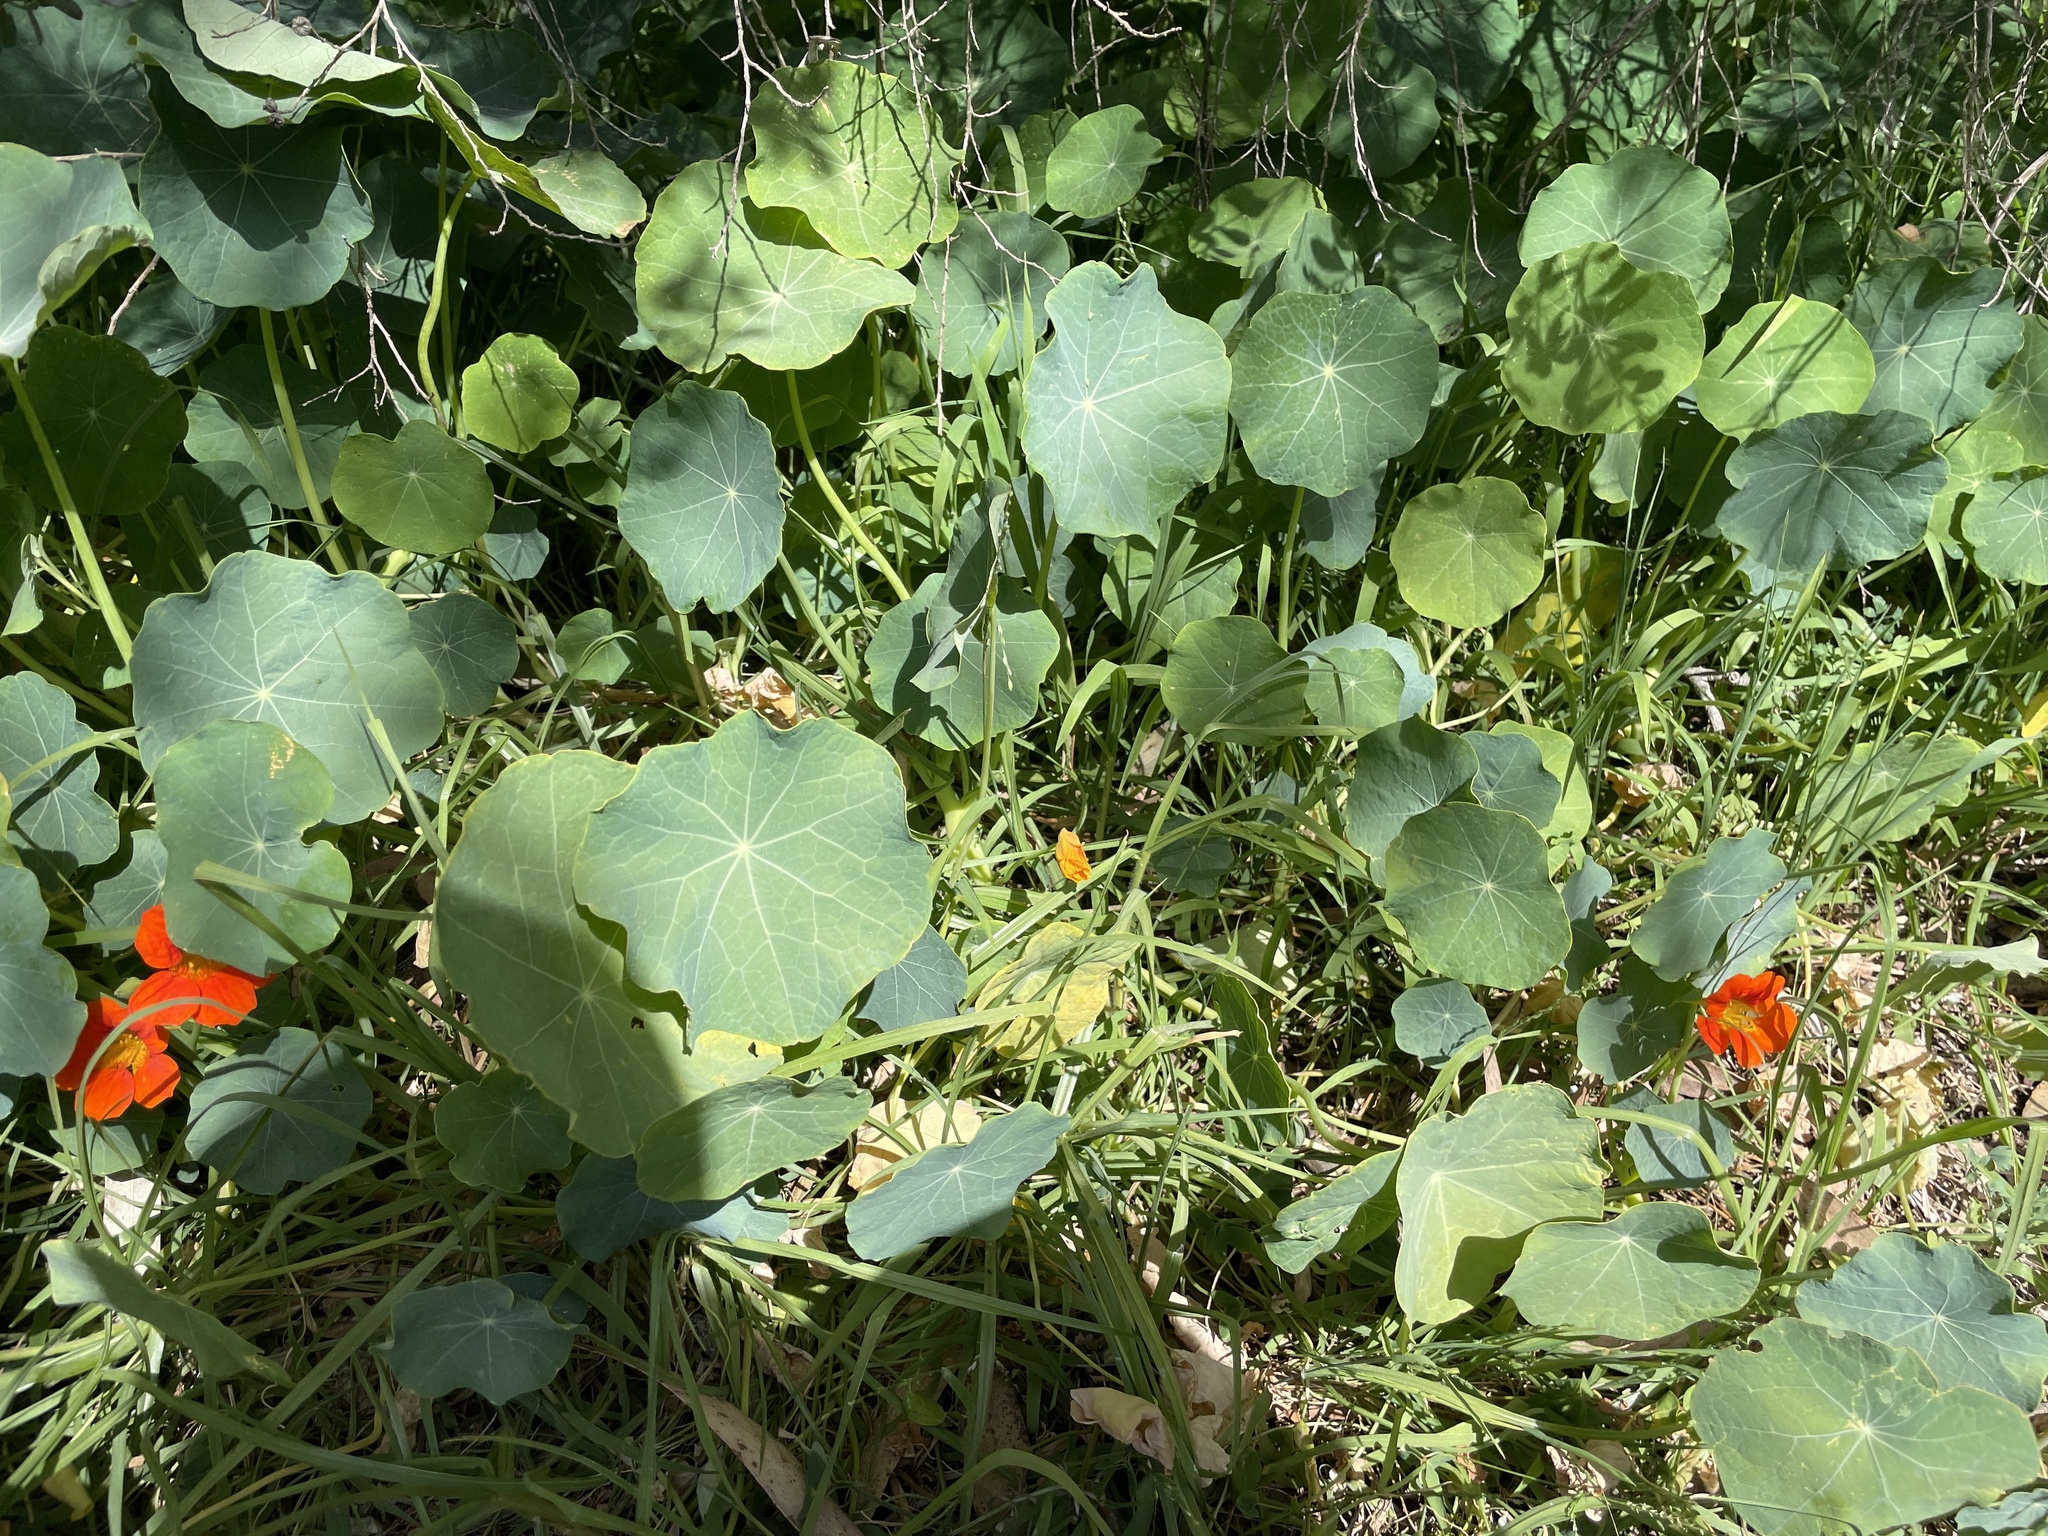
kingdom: Plantae
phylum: Tracheophyta
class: Magnoliopsida
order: Brassicales
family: Tropaeolaceae
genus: Tropaeolum
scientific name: Tropaeolum majus
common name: Nasturtium
